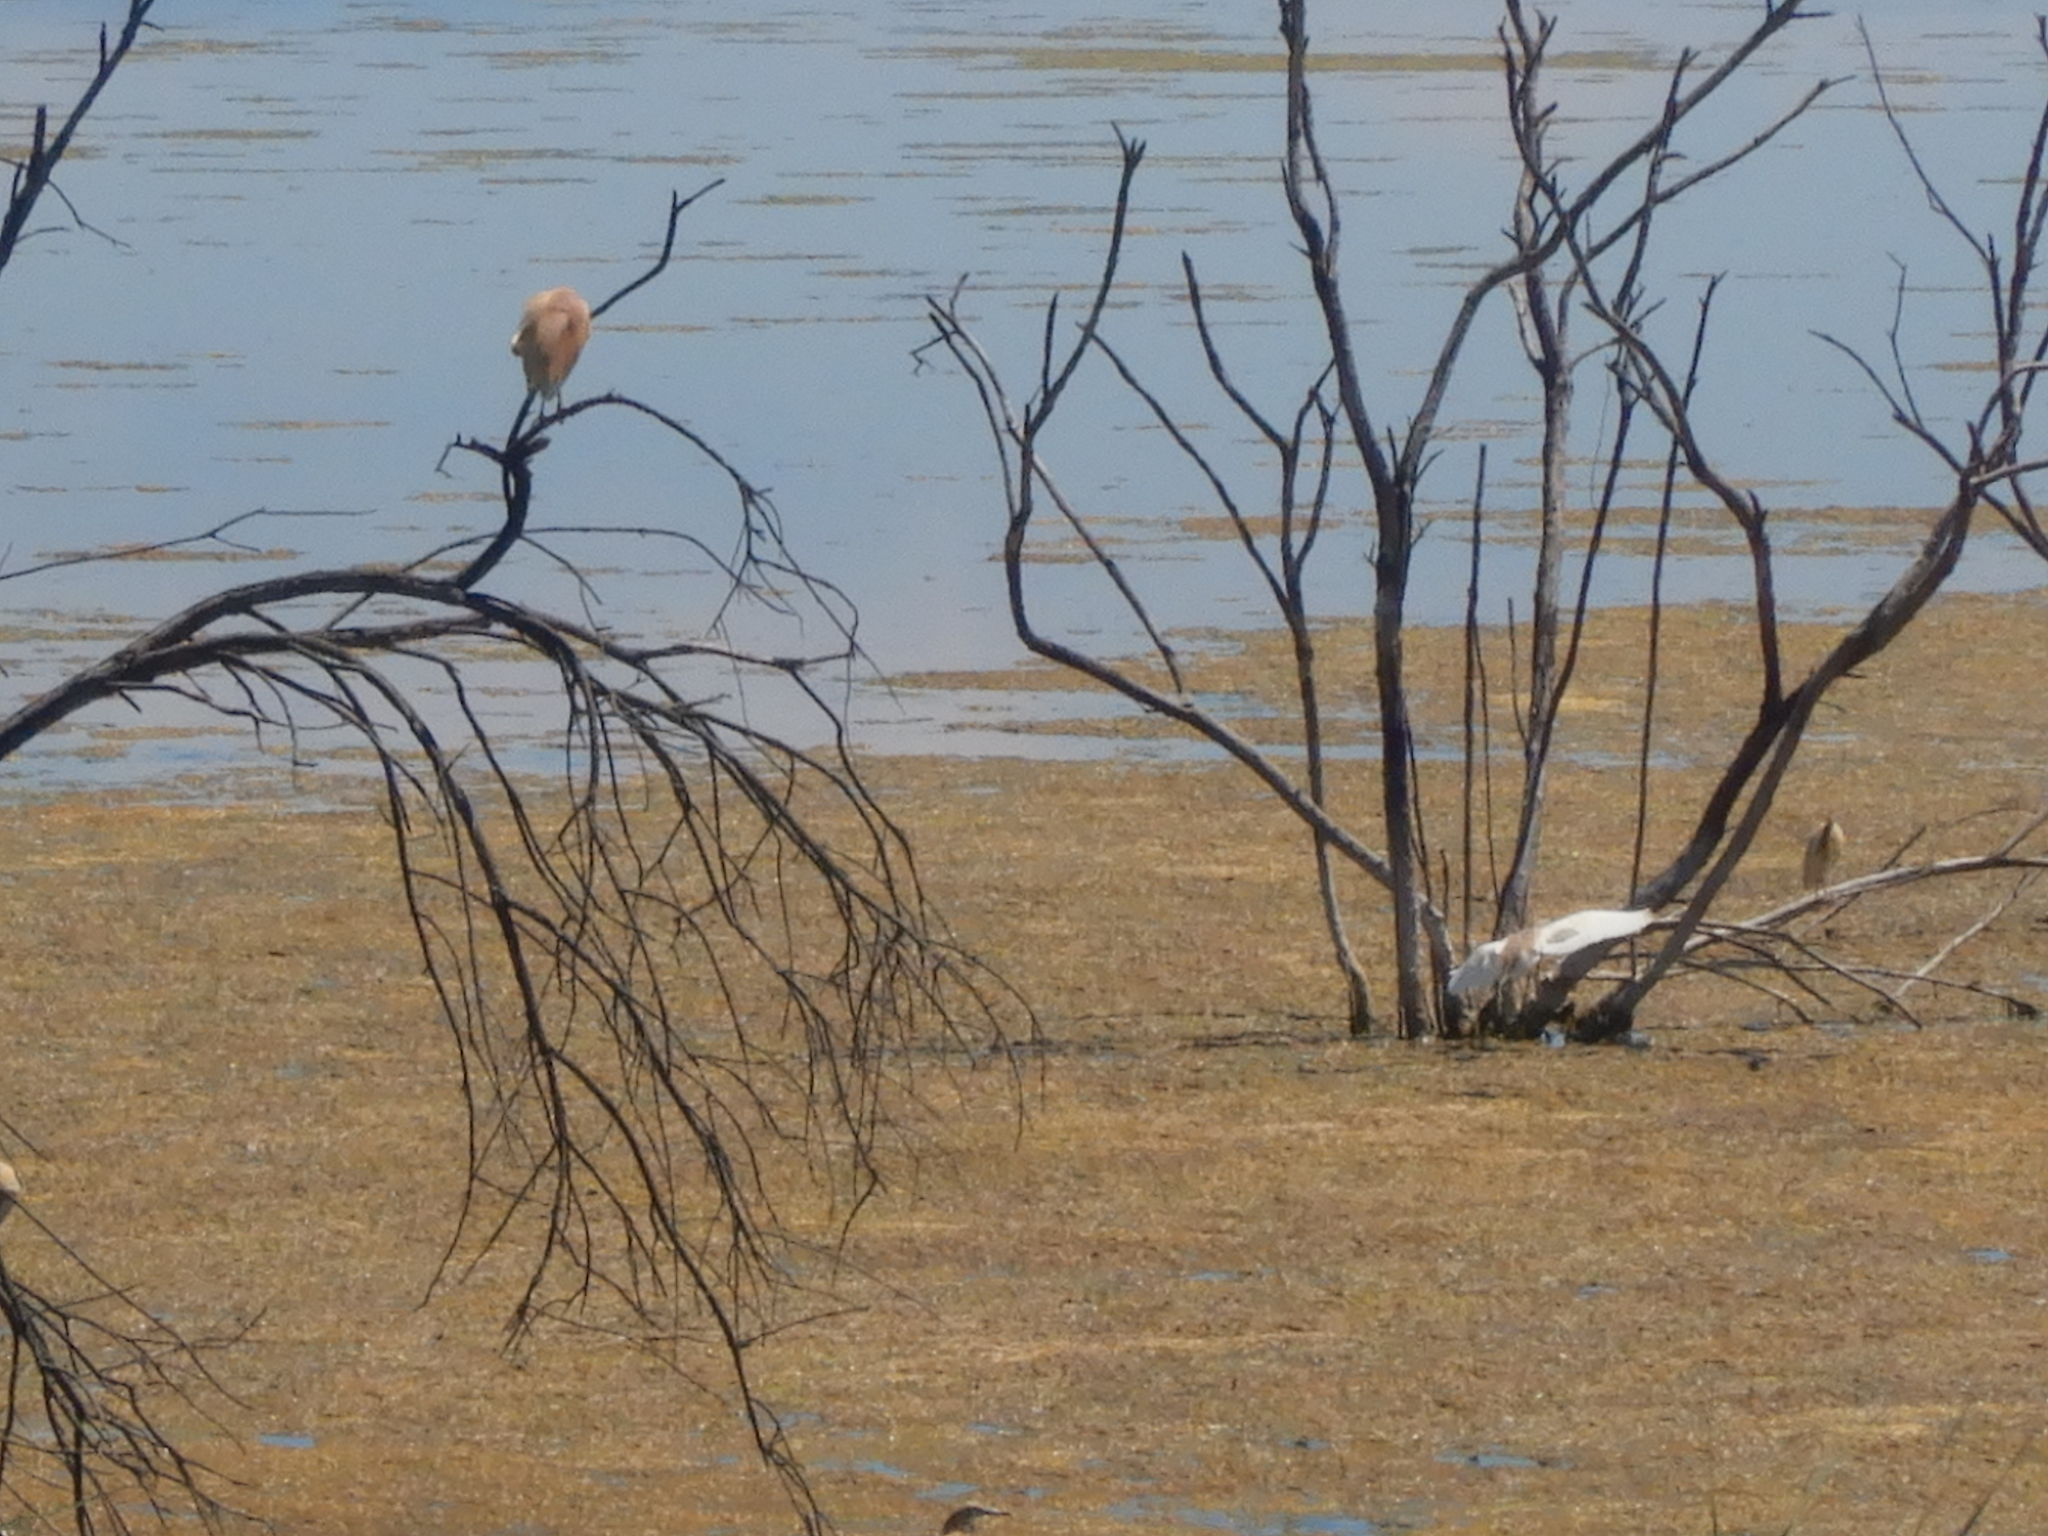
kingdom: Animalia
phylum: Chordata
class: Aves
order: Pelecaniformes
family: Ardeidae
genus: Ardeola
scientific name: Ardeola ralloides
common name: Squacco heron
